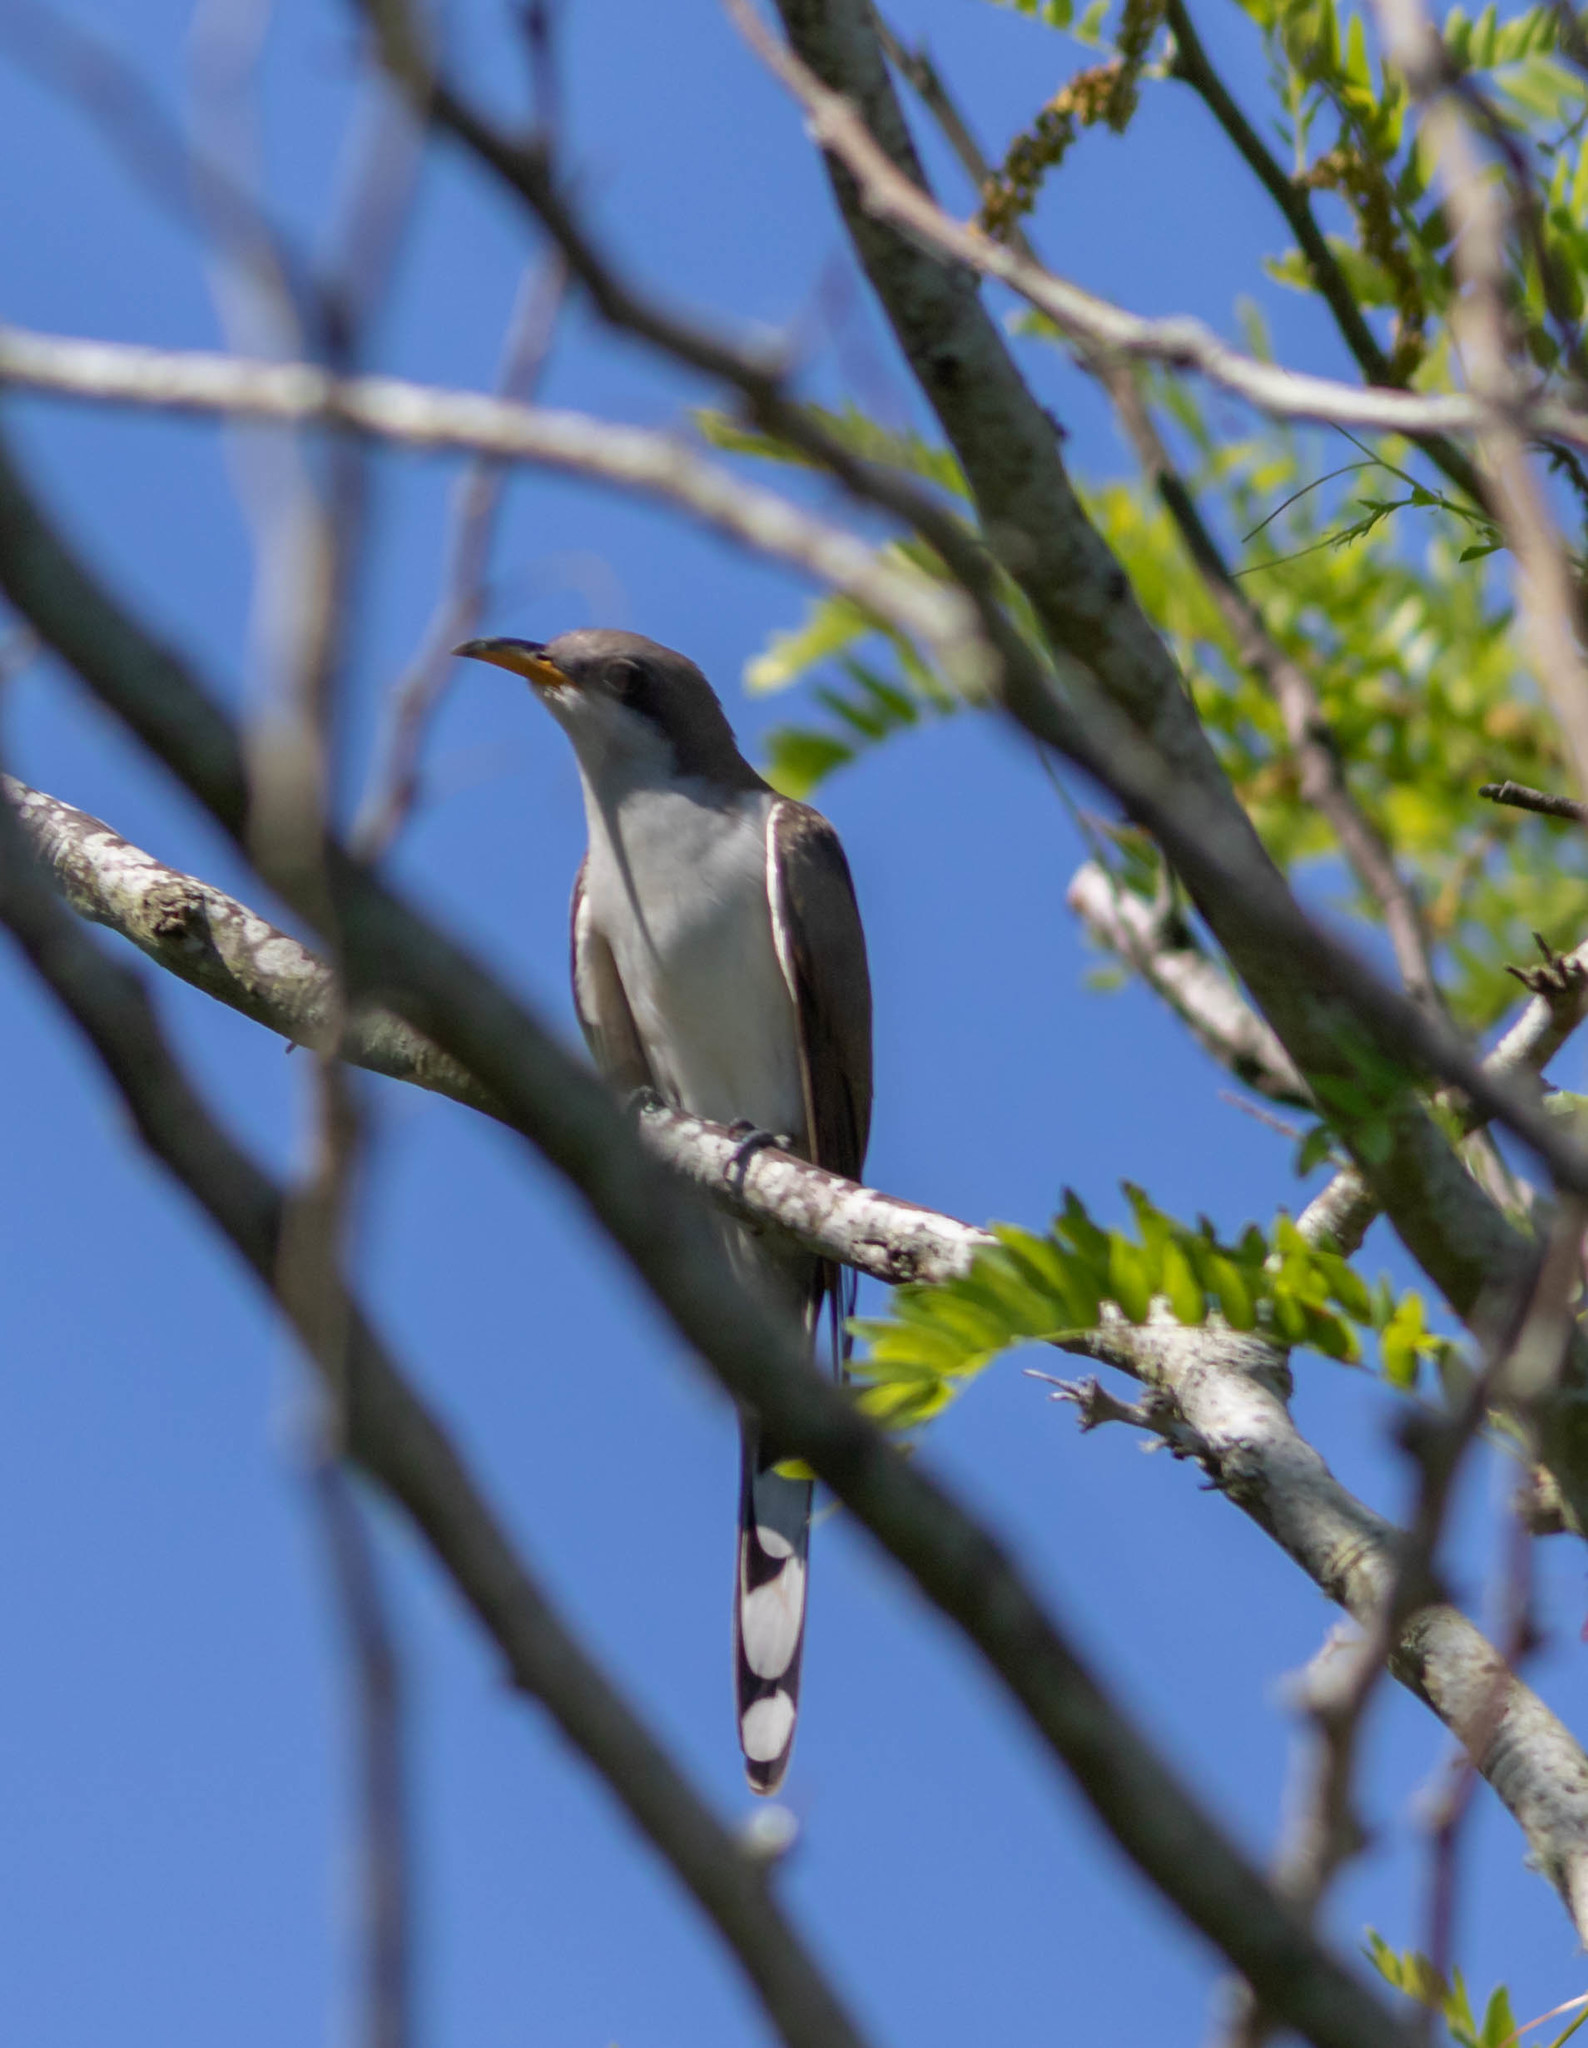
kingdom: Animalia
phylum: Chordata
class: Aves
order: Cuculiformes
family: Cuculidae
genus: Coccyzus
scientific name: Coccyzus americanus
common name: Yellow-billed cuckoo
